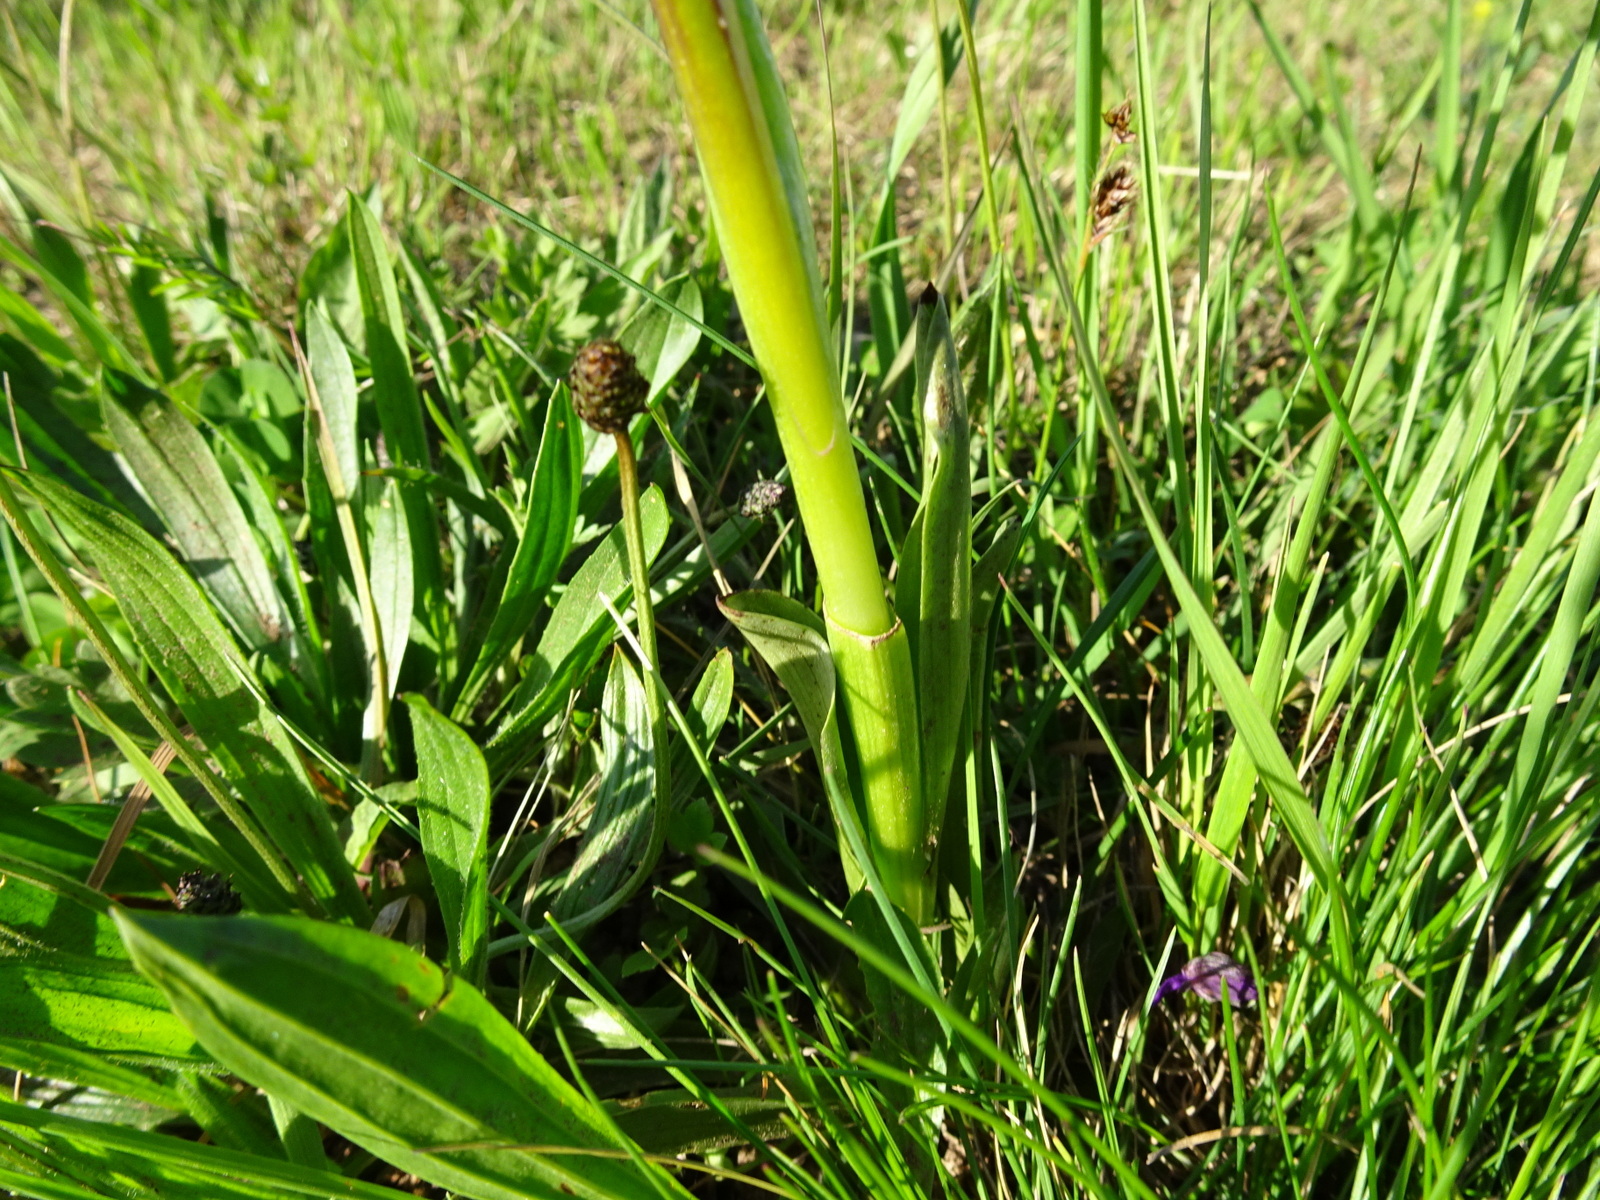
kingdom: Plantae
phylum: Tracheophyta
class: Liliopsida
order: Asparagales
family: Orchidaceae
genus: Anacamptis
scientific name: Anacamptis morio
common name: Green-winged orchid
